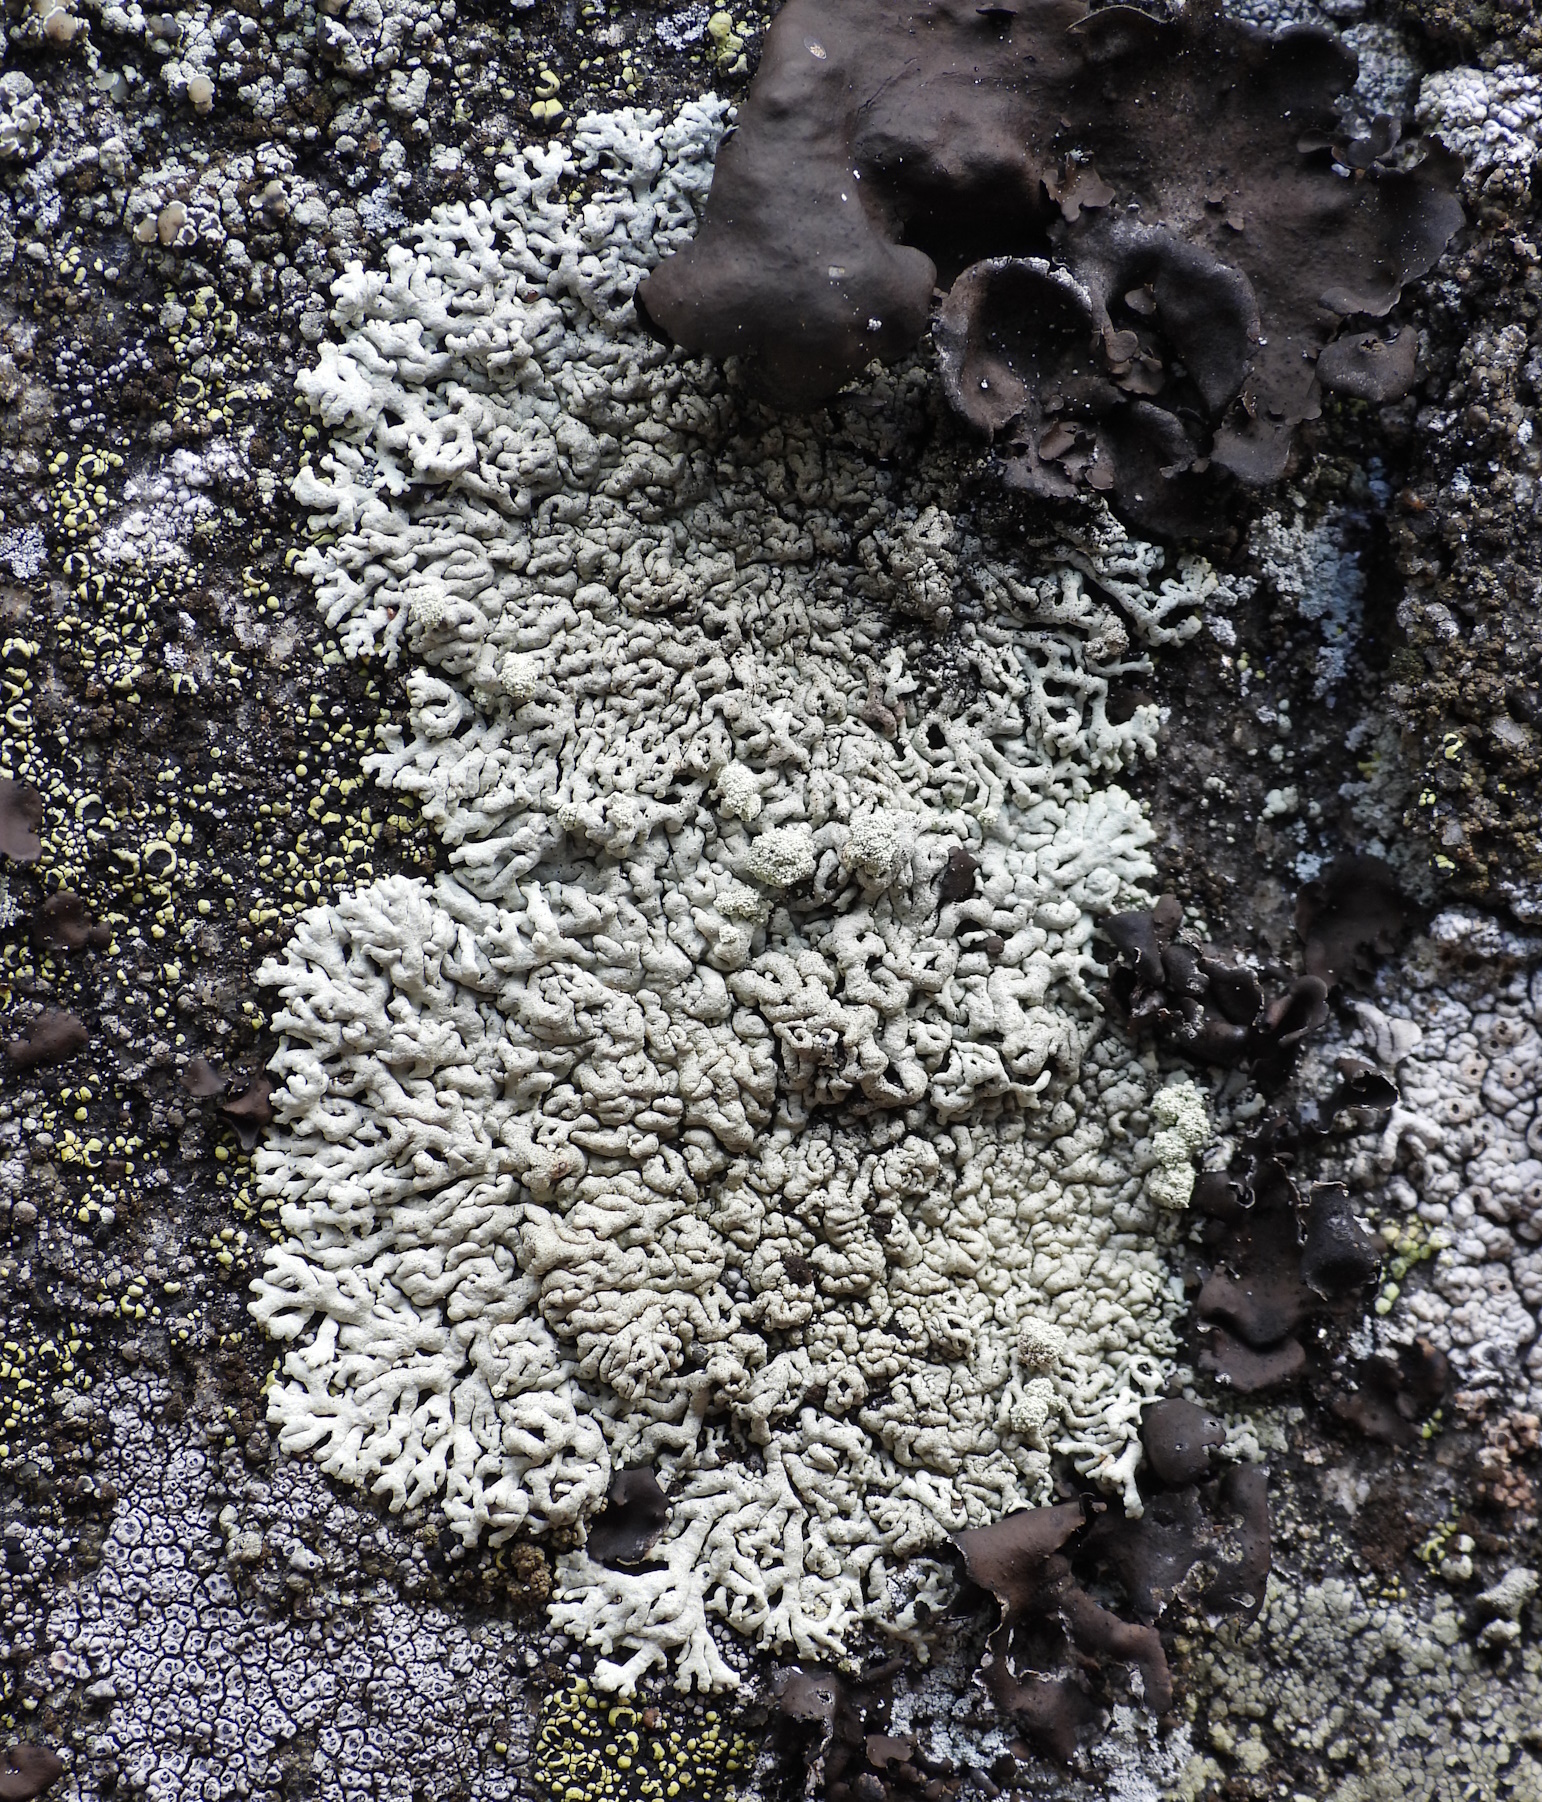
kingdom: Fungi
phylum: Ascomycota
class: Lecanoromycetes
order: Lecanorales
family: Parmeliaceae
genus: Arctoparmelia
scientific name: Arctoparmelia incurva
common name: Bent ring lichen
